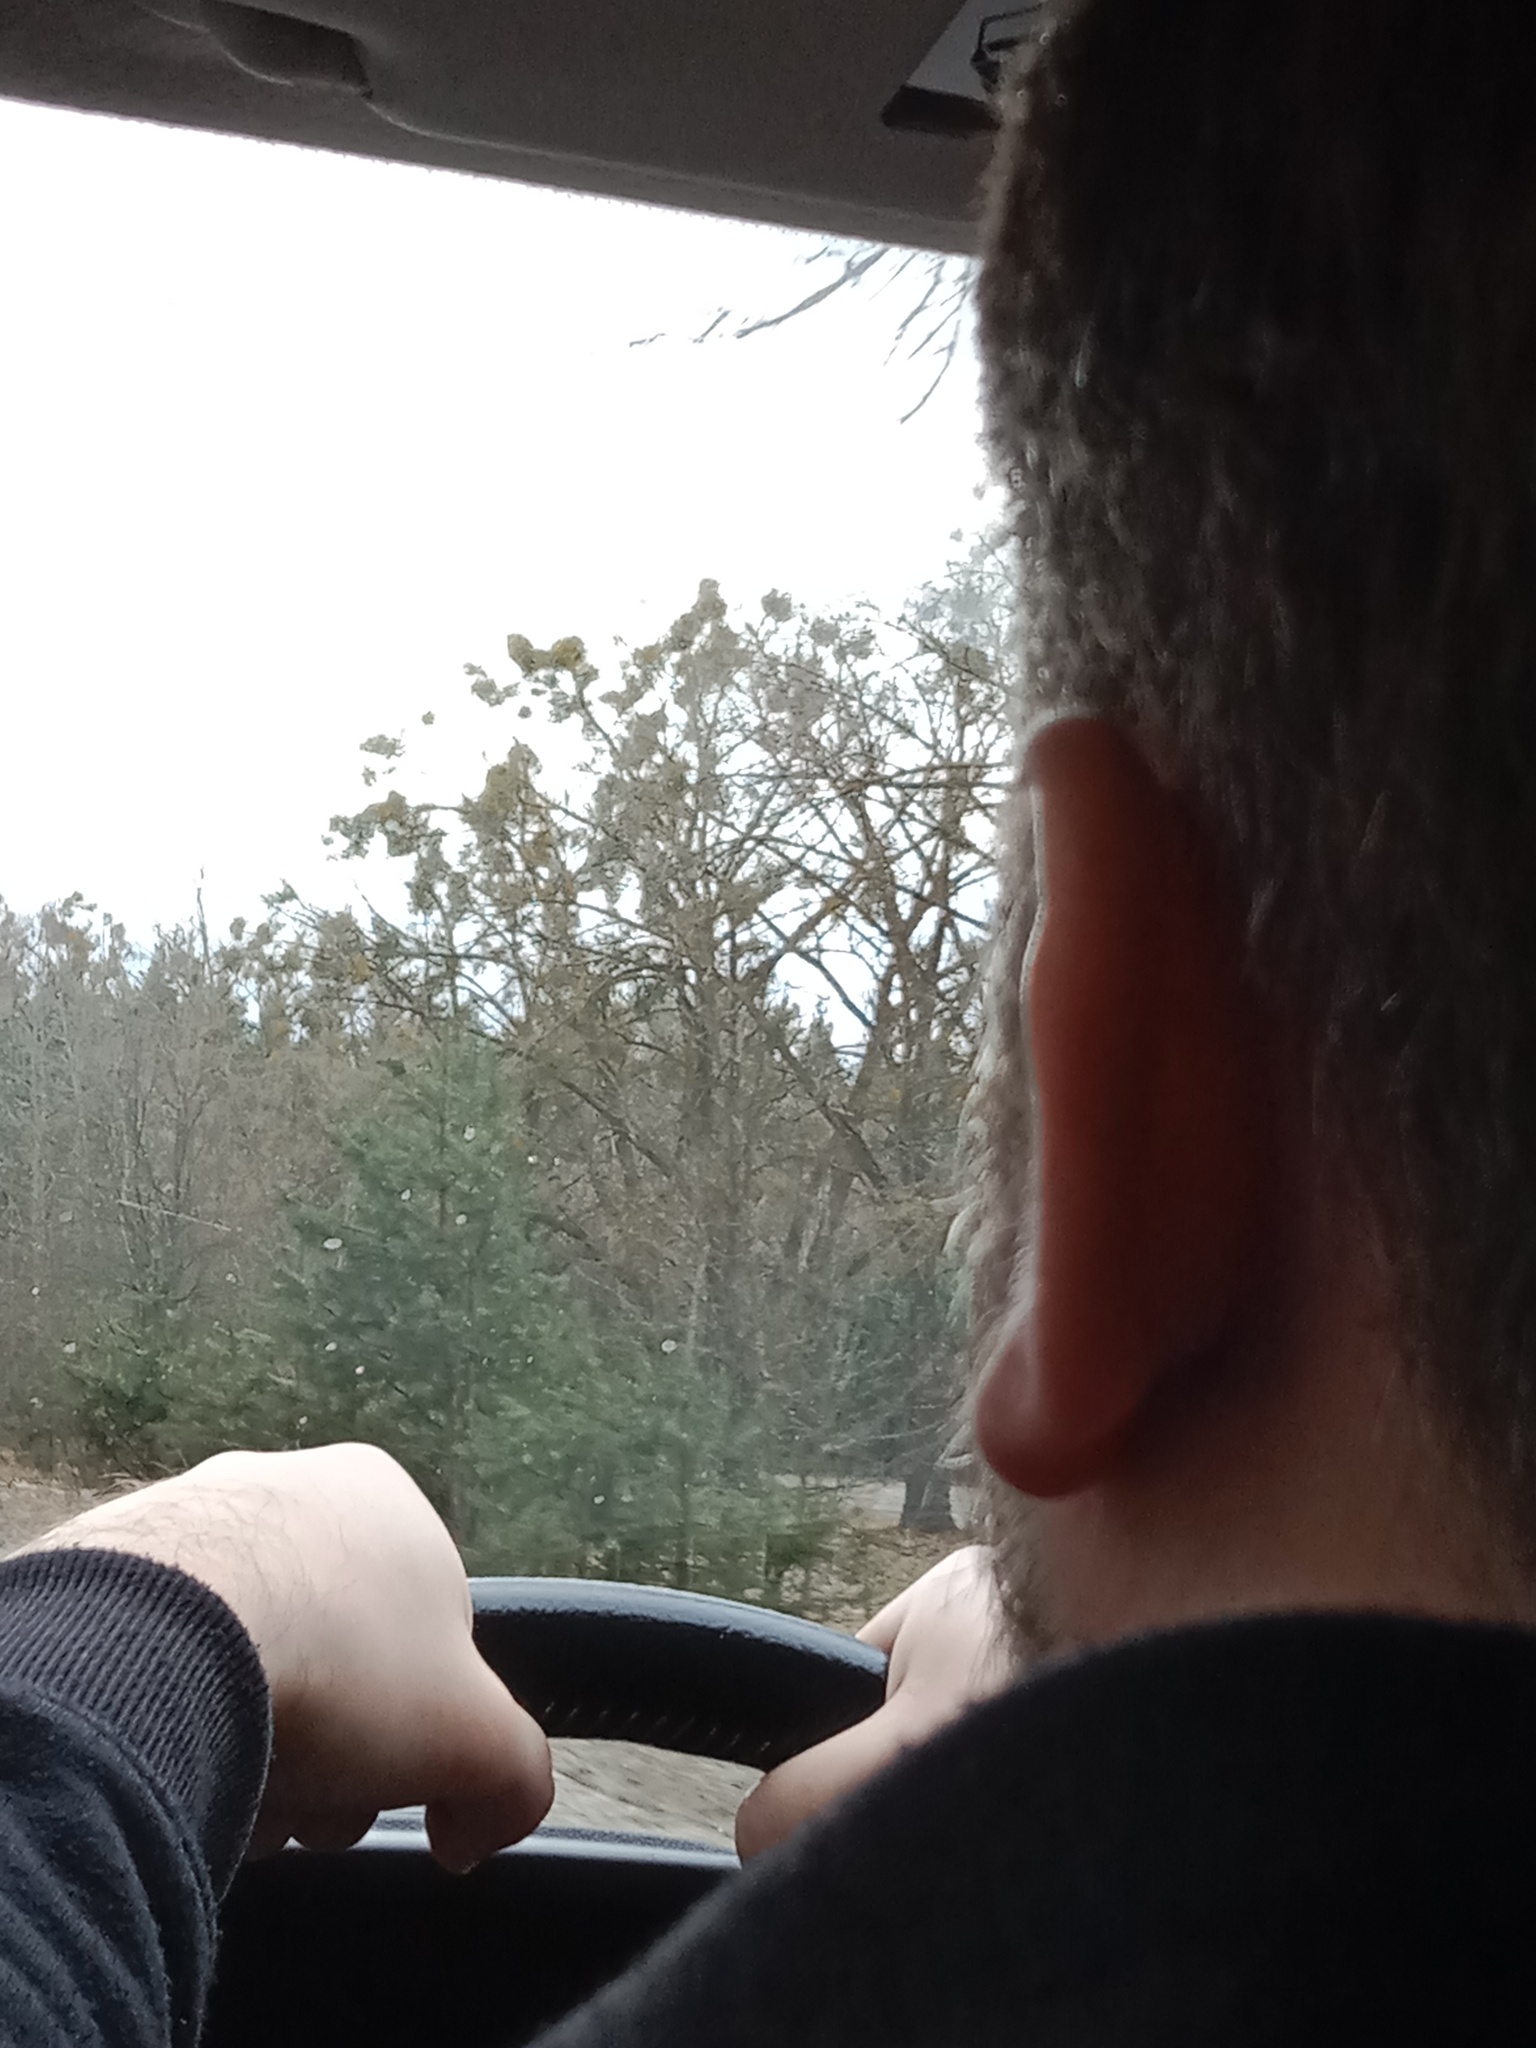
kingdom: Plantae
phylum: Tracheophyta
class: Magnoliopsida
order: Santalales
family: Viscaceae
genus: Viscum
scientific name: Viscum album
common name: Mistletoe
